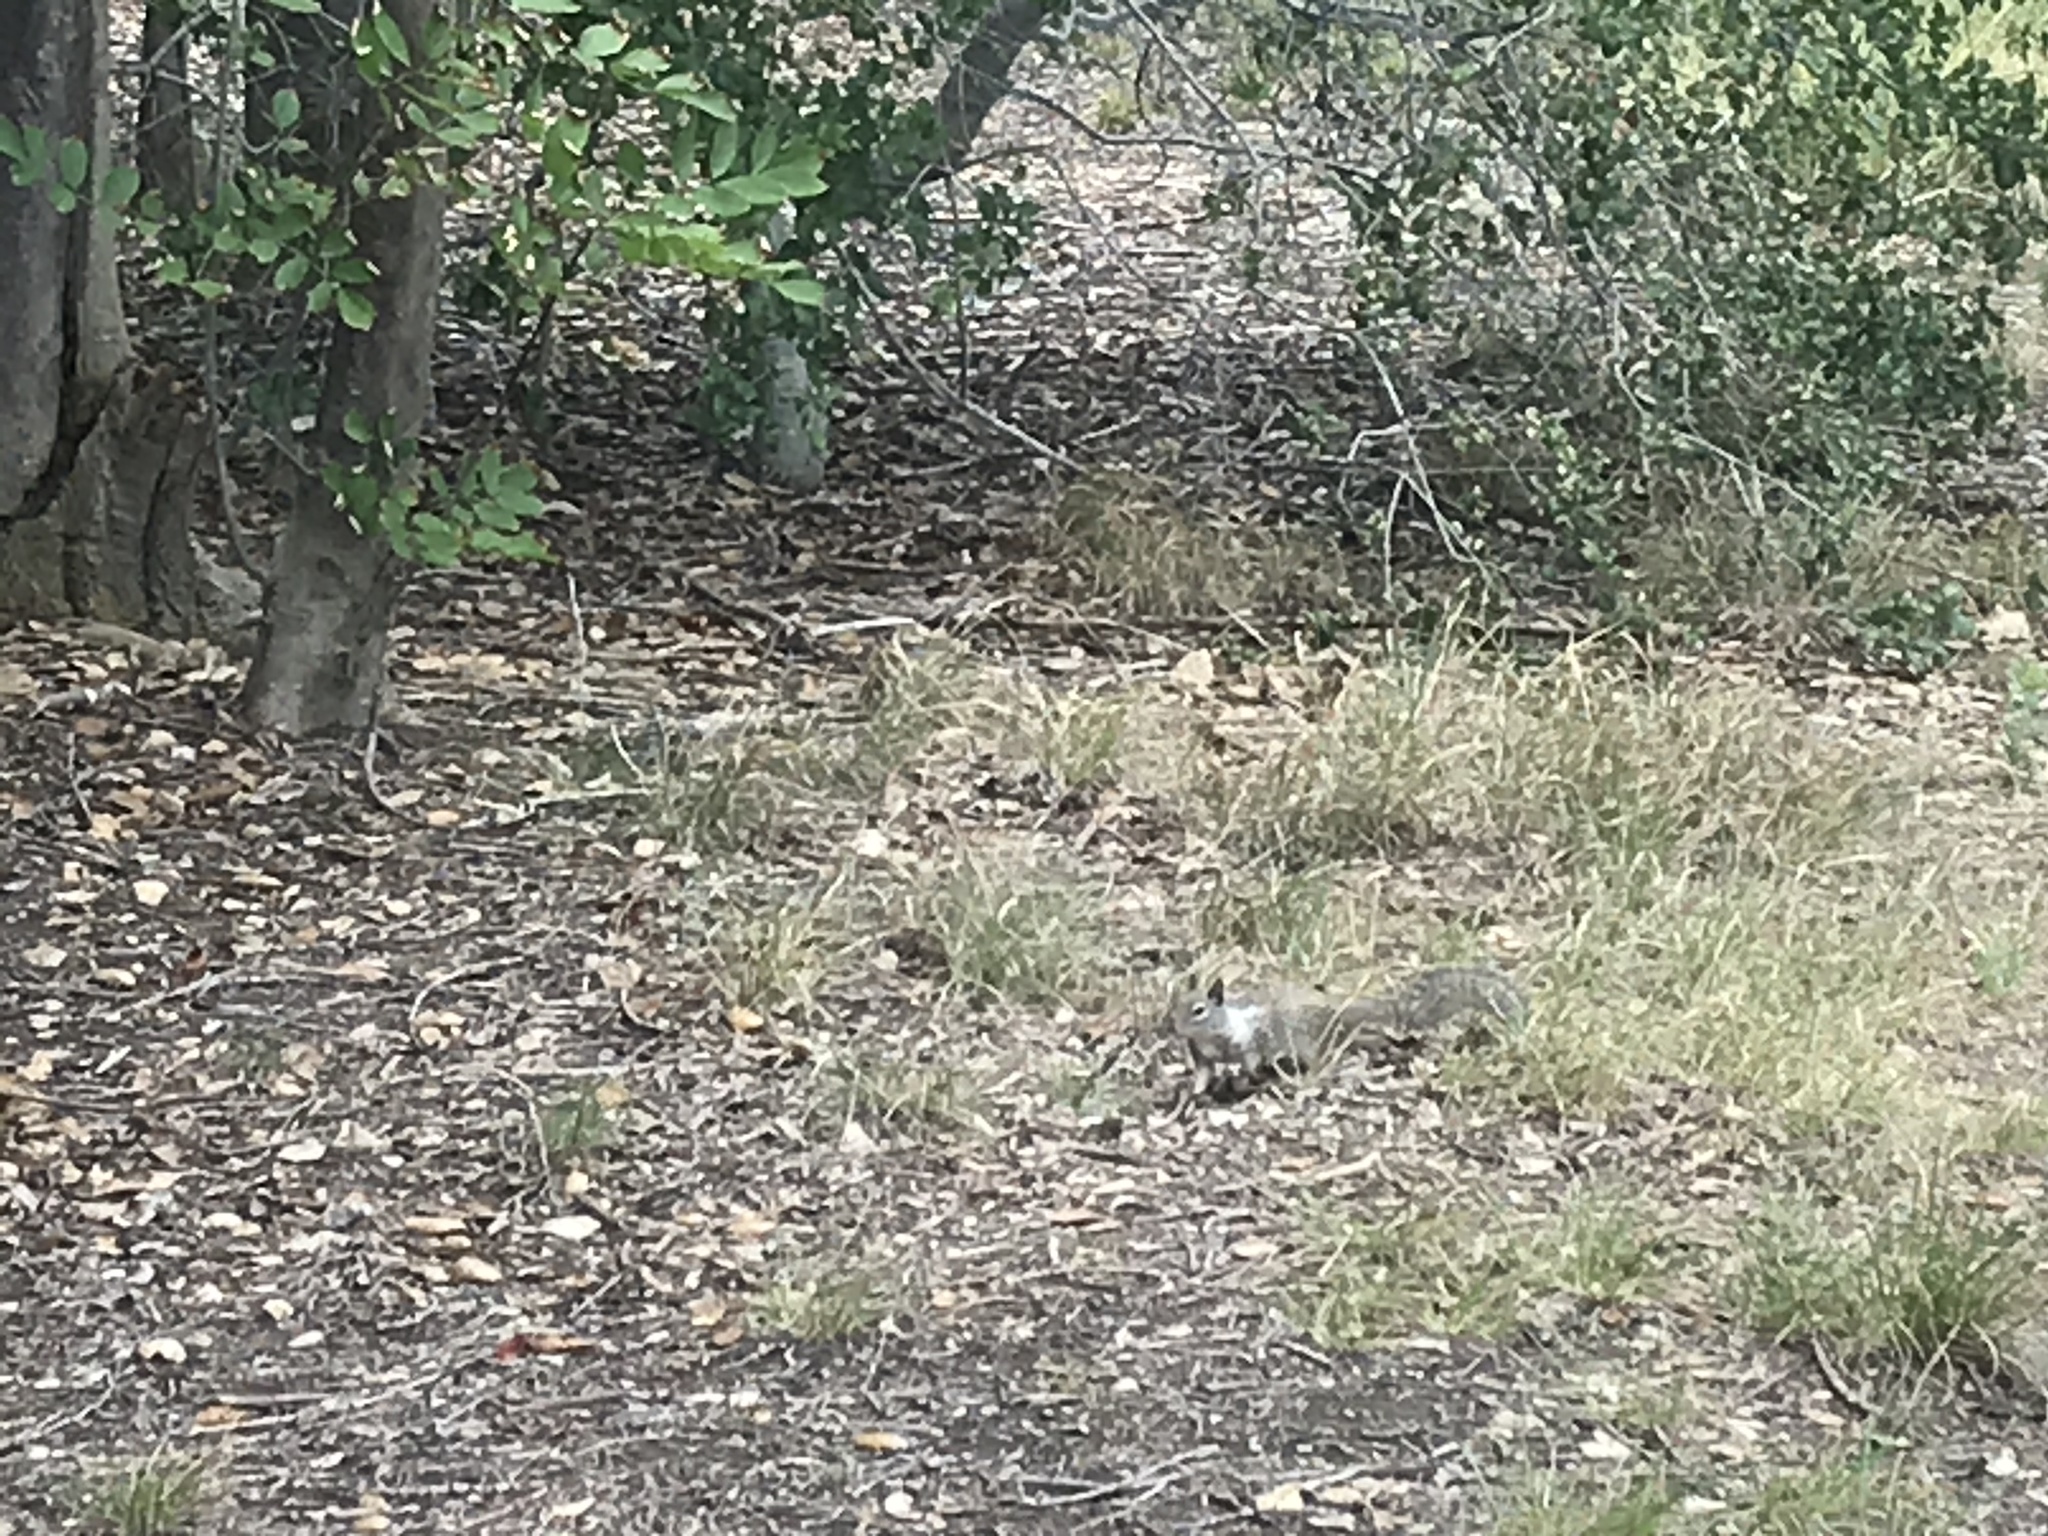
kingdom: Animalia
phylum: Chordata
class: Mammalia
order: Rodentia
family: Sciuridae
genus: Otospermophilus
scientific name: Otospermophilus beecheyi
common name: California ground squirrel
